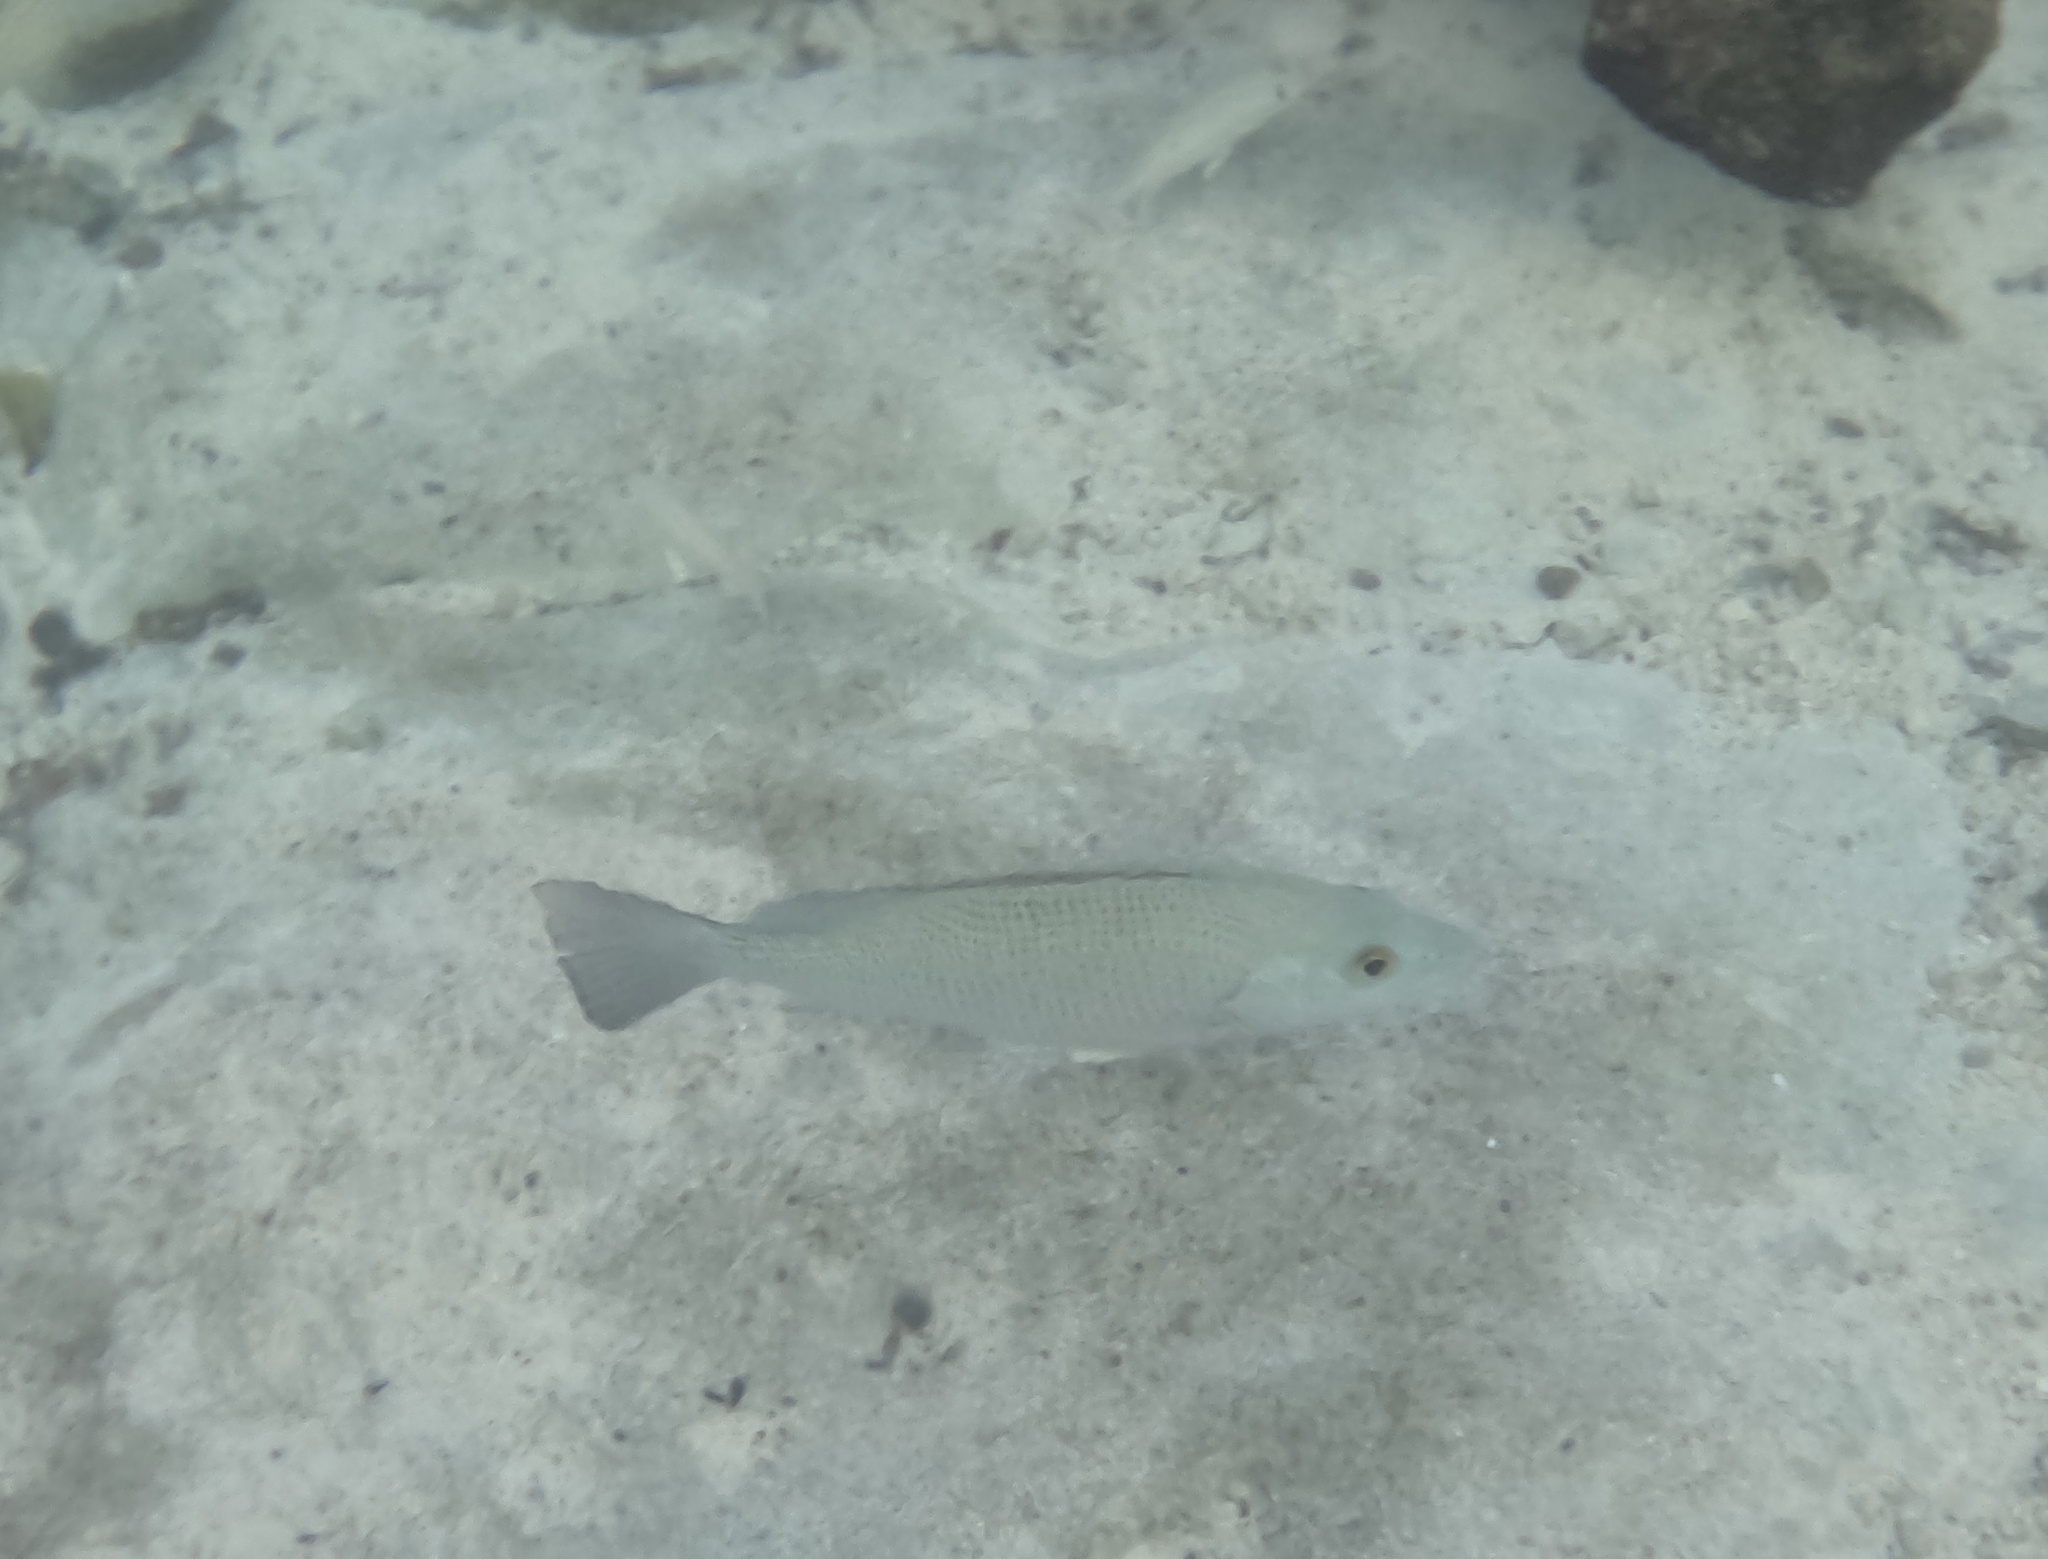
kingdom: Animalia
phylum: Chordata
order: Perciformes
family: Lutjanidae
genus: Lutjanus
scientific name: Lutjanus griseus
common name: Gray snapper
